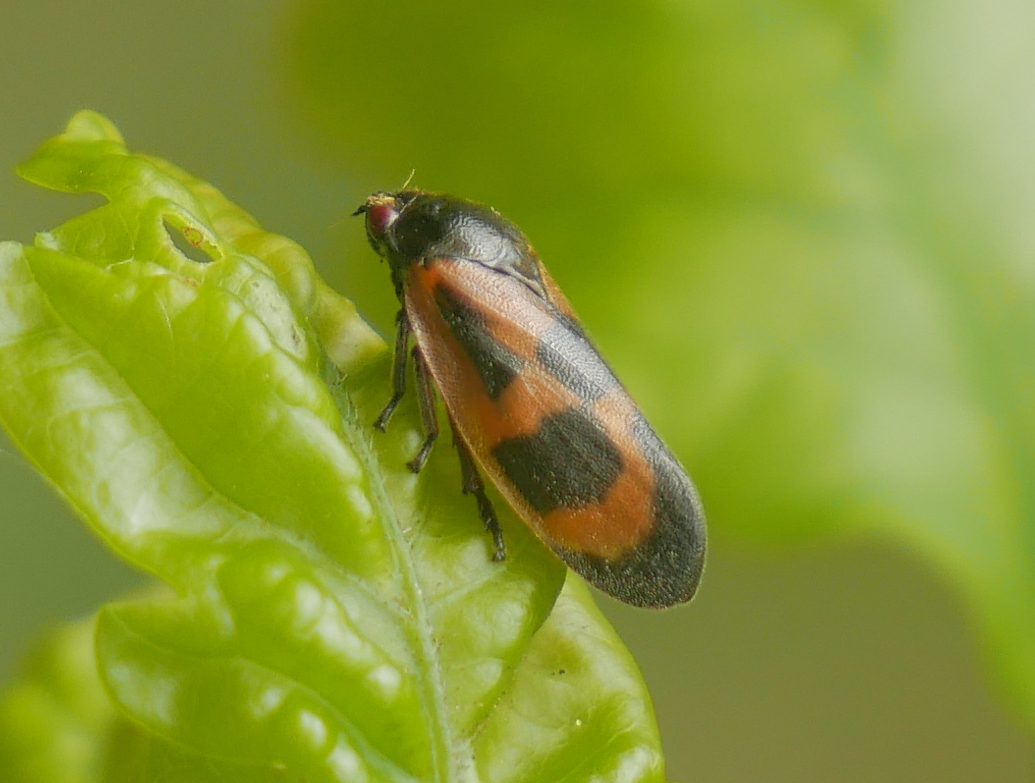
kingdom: Animalia
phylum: Arthropoda
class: Insecta
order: Hemiptera
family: Cercopidae
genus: Haematoloma
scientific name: Haematoloma dorsata
